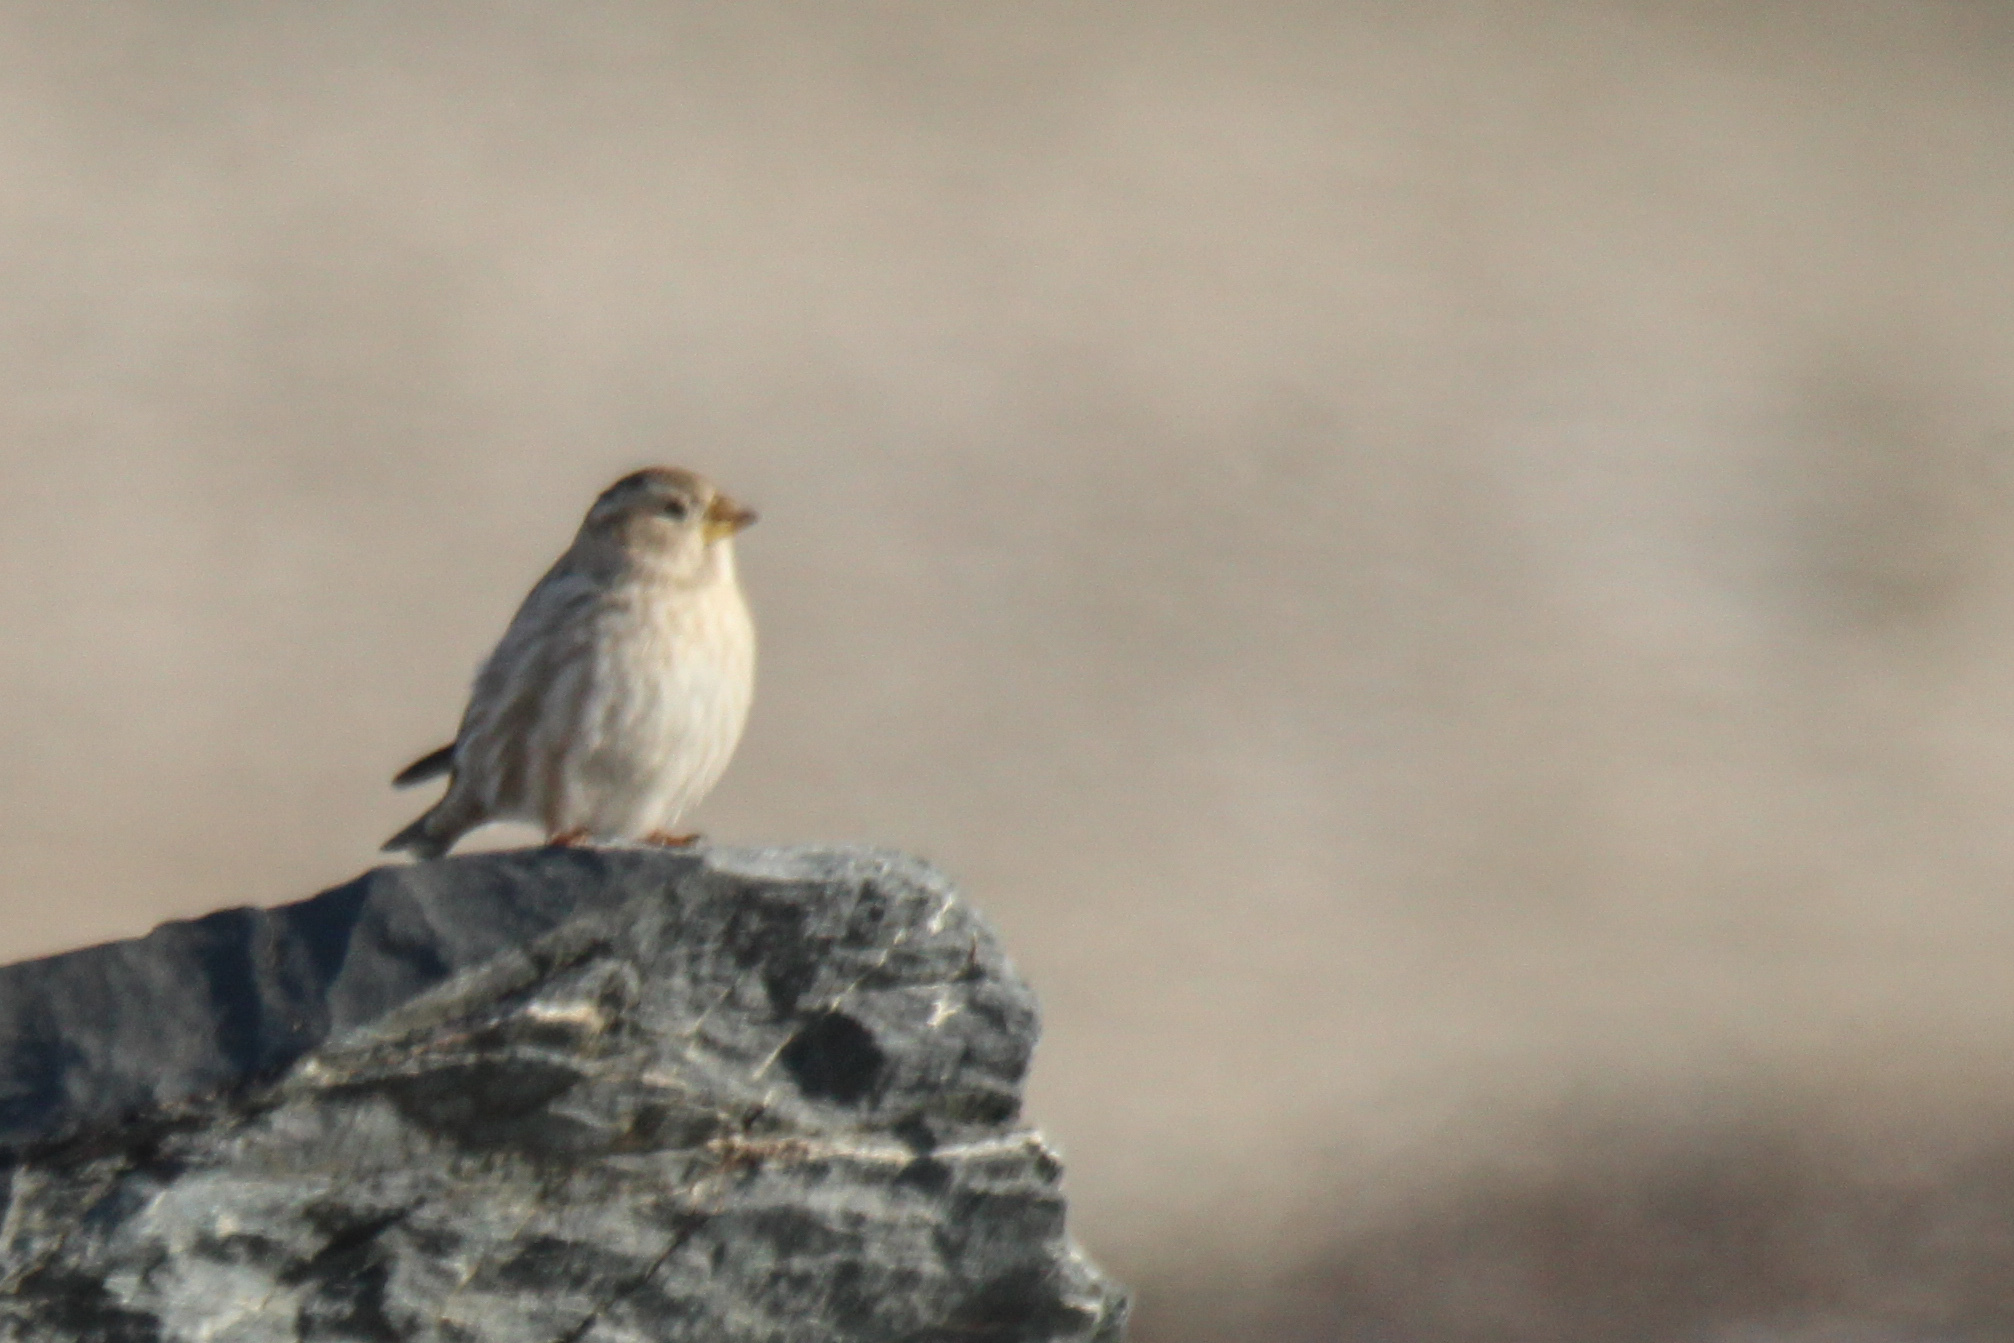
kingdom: Animalia
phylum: Chordata
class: Aves
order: Passeriformes
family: Passeridae
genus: Petronia
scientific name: Petronia petronia
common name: Rock sparrow
